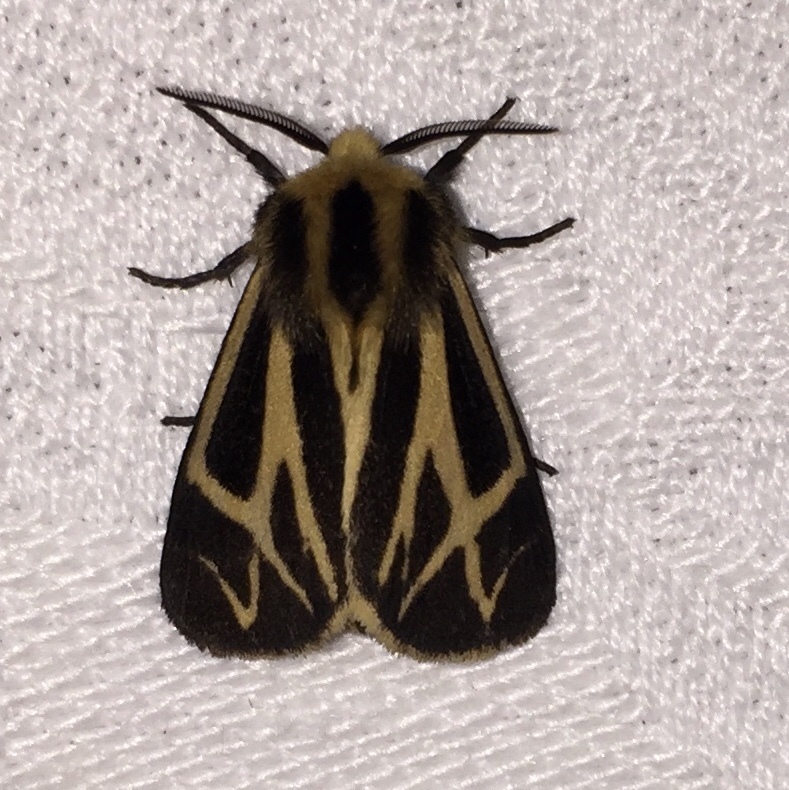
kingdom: Animalia
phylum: Arthropoda
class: Insecta
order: Lepidoptera
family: Erebidae
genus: Apantesis
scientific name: Apantesis carlotta
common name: Carlotta's tiger moth
